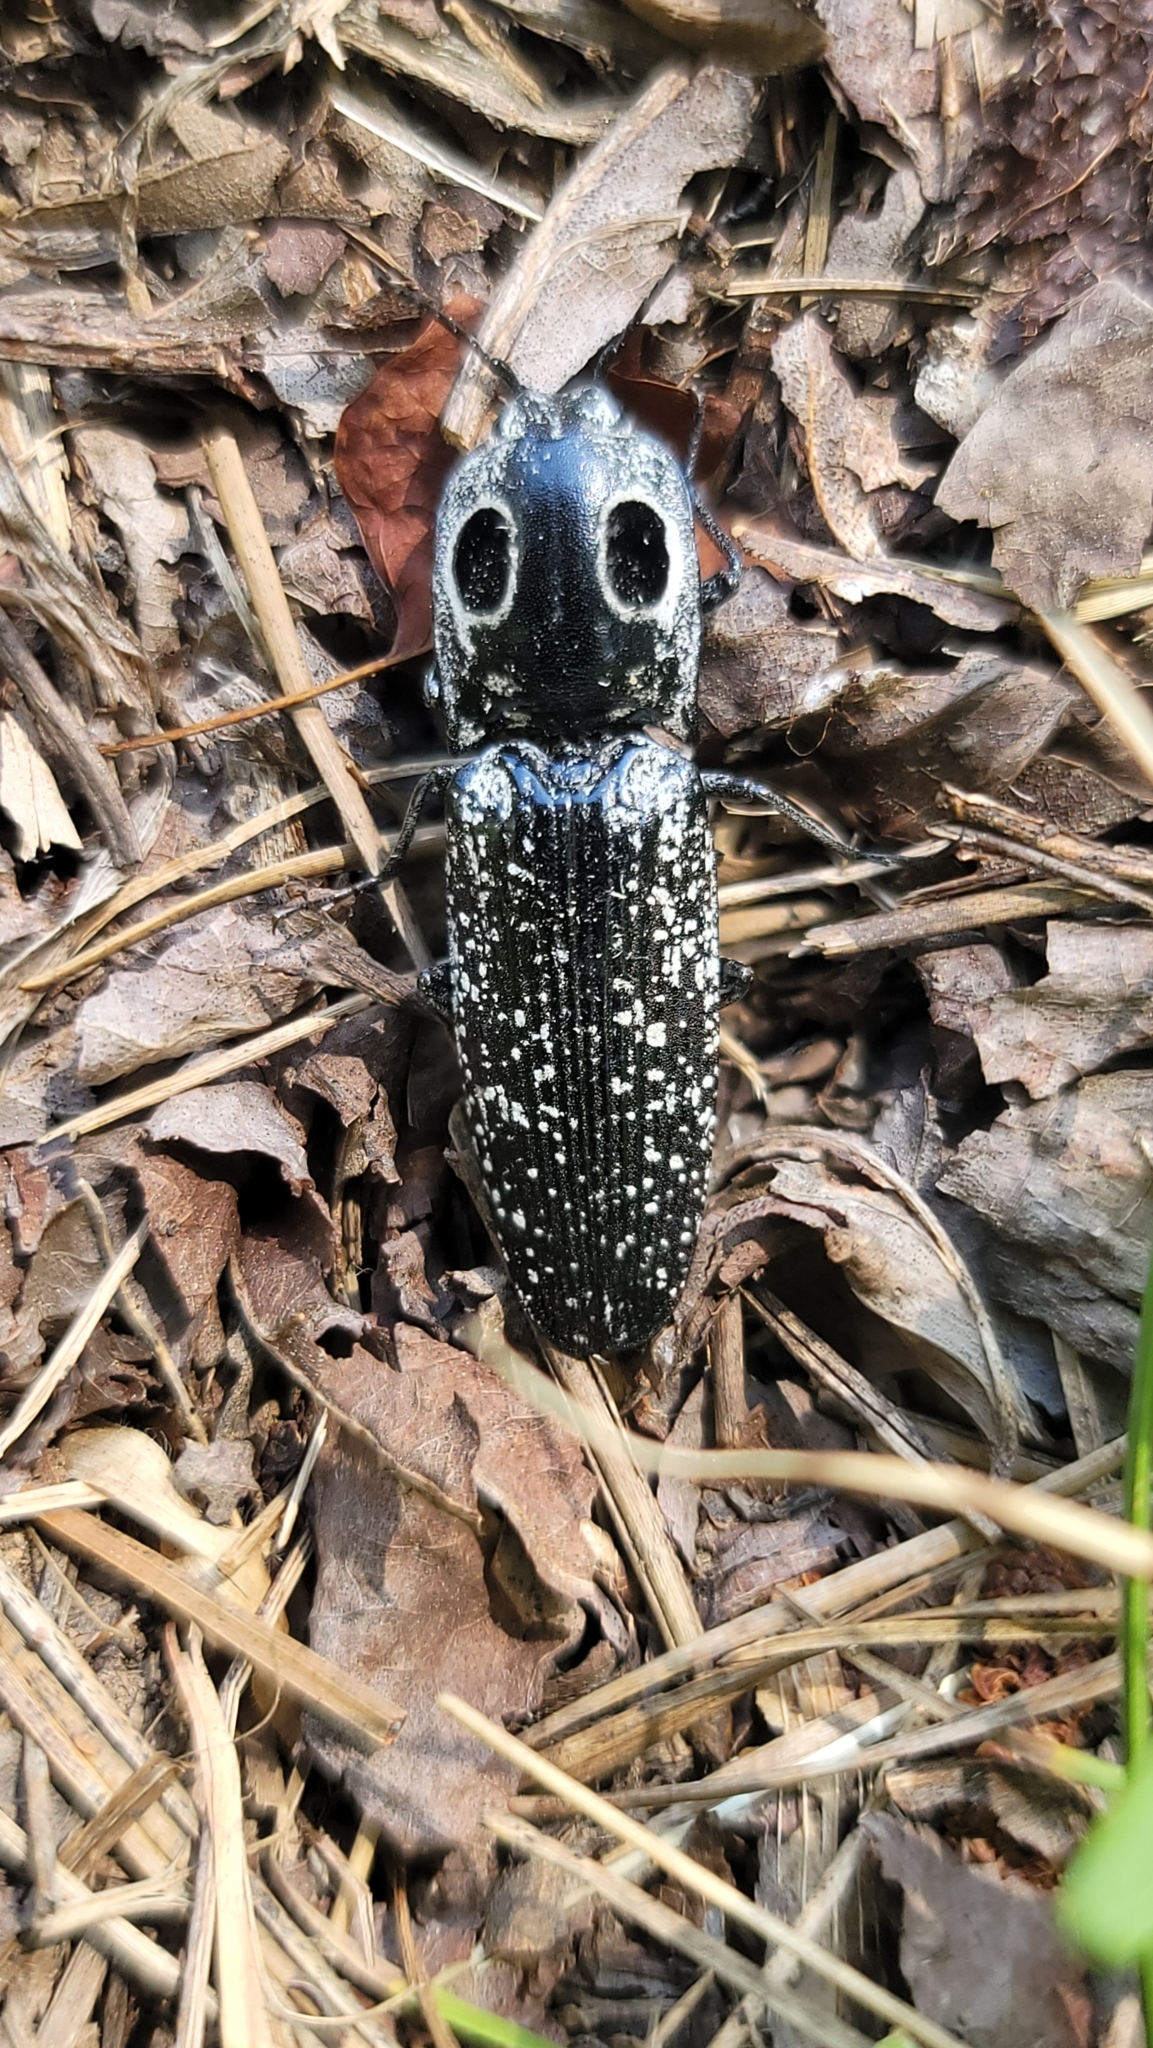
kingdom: Animalia
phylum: Arthropoda
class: Insecta
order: Coleoptera
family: Elateridae
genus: Alaus
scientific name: Alaus oculatus
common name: Eastern eyed click beetle
